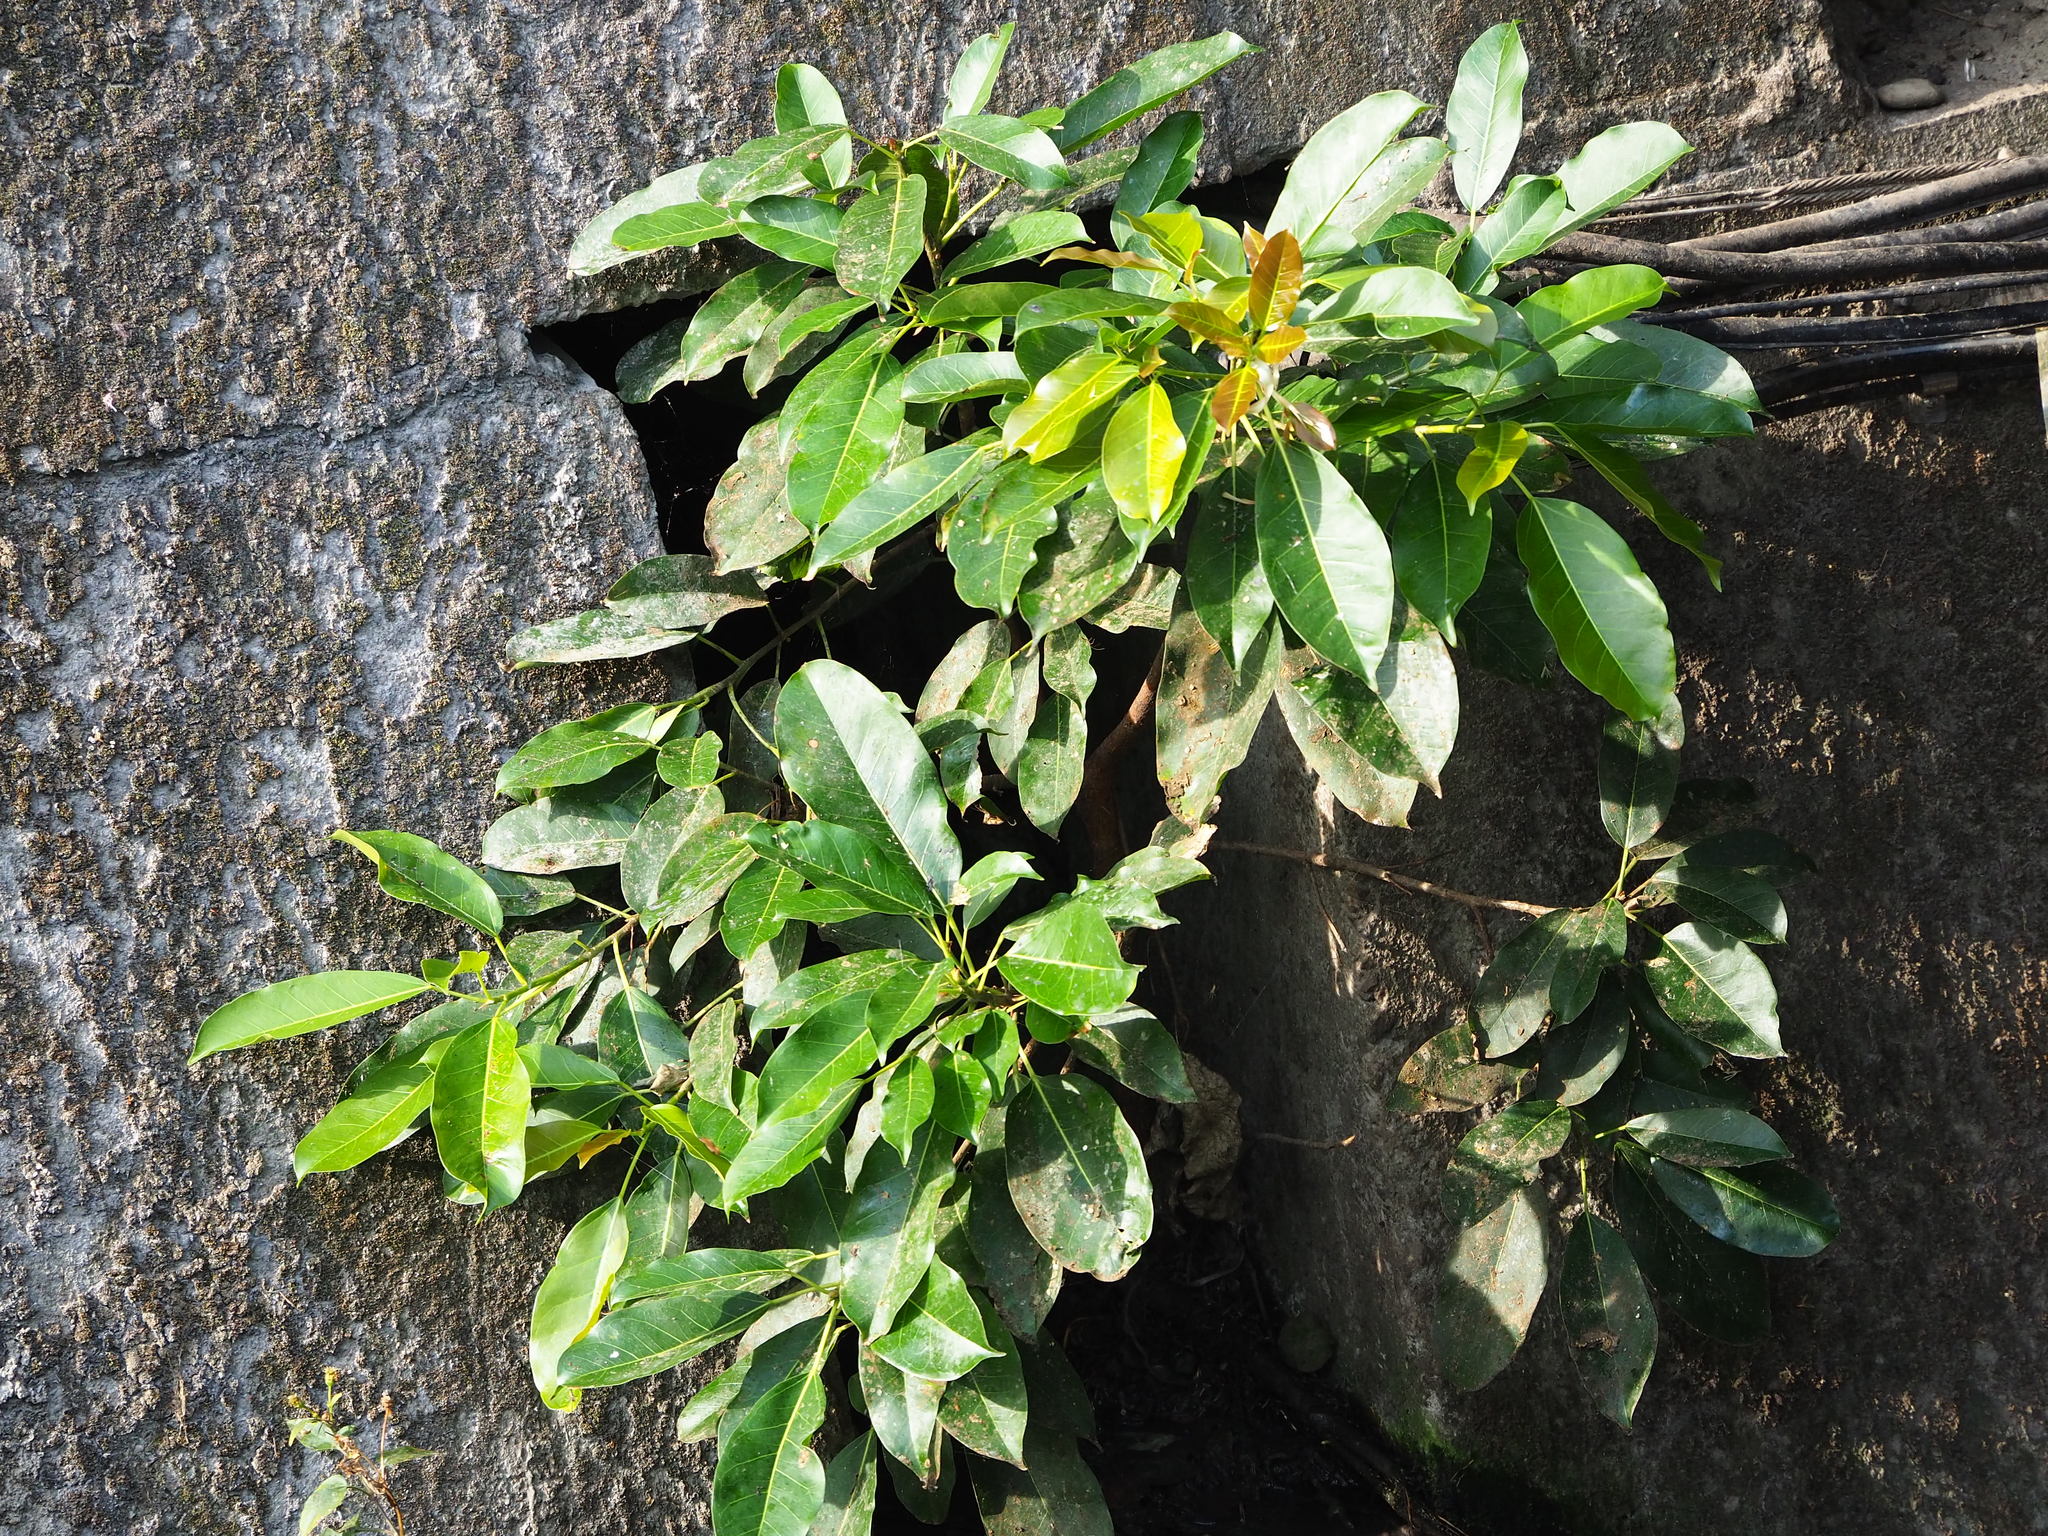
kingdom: Plantae
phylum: Tracheophyta
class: Magnoliopsida
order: Rosales
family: Moraceae
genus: Ficus
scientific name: Ficus subpisocarpa
